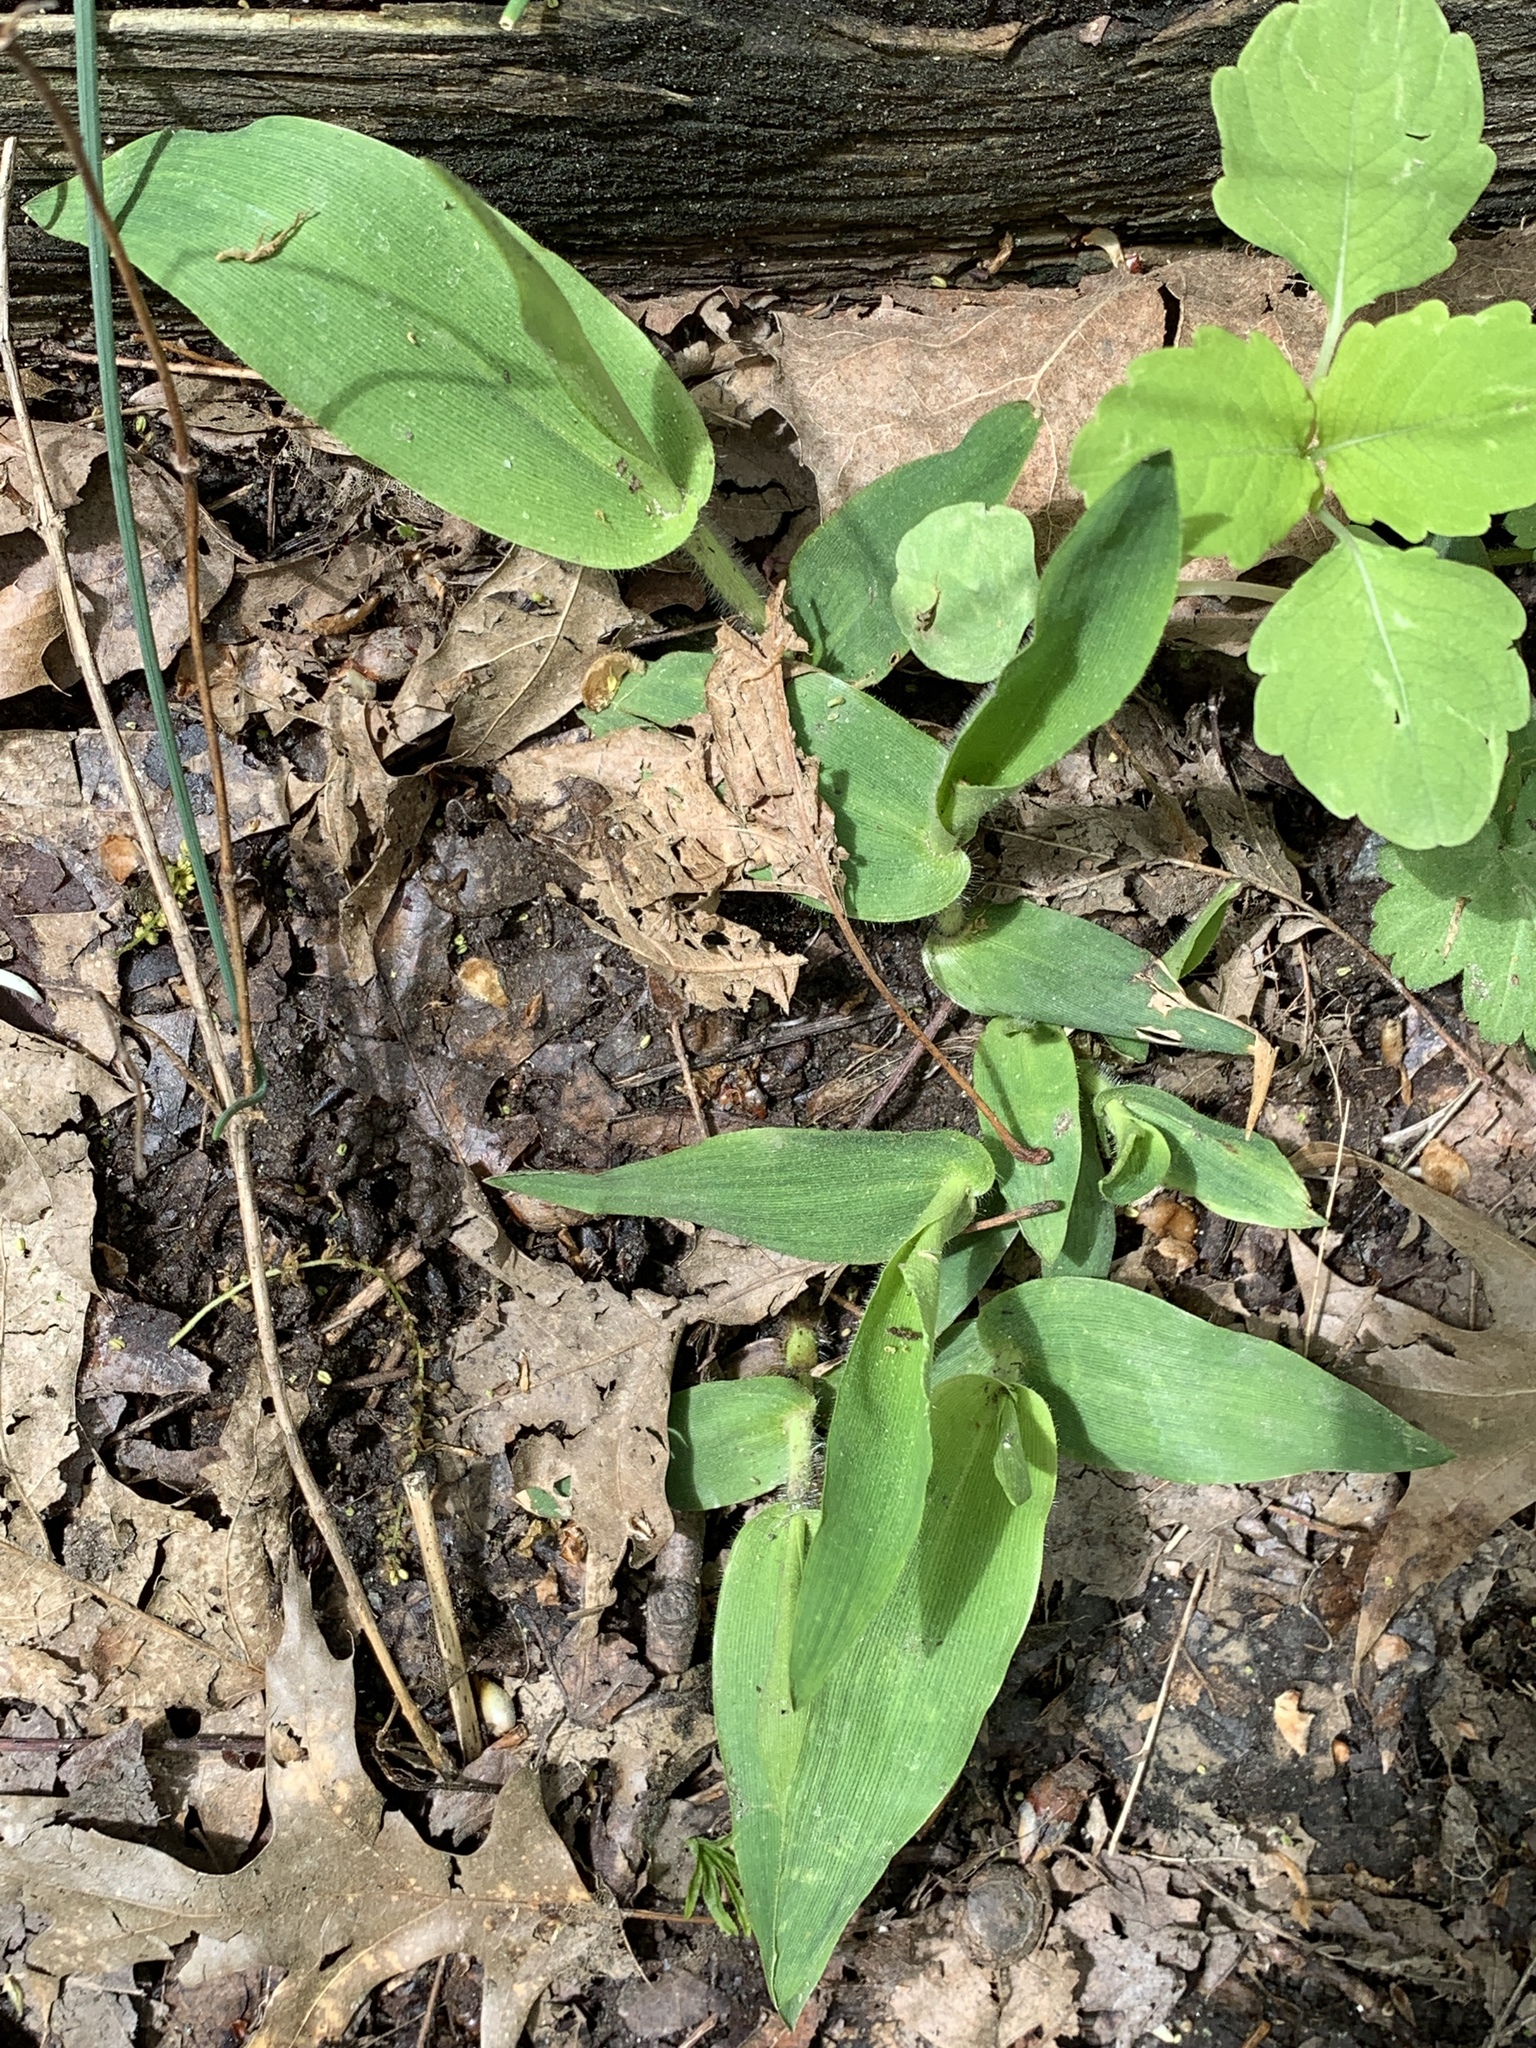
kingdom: Plantae
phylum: Tracheophyta
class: Liliopsida
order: Poales
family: Poaceae
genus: Dichanthelium
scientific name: Dichanthelium clandestinum
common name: Deer-tongue grass
